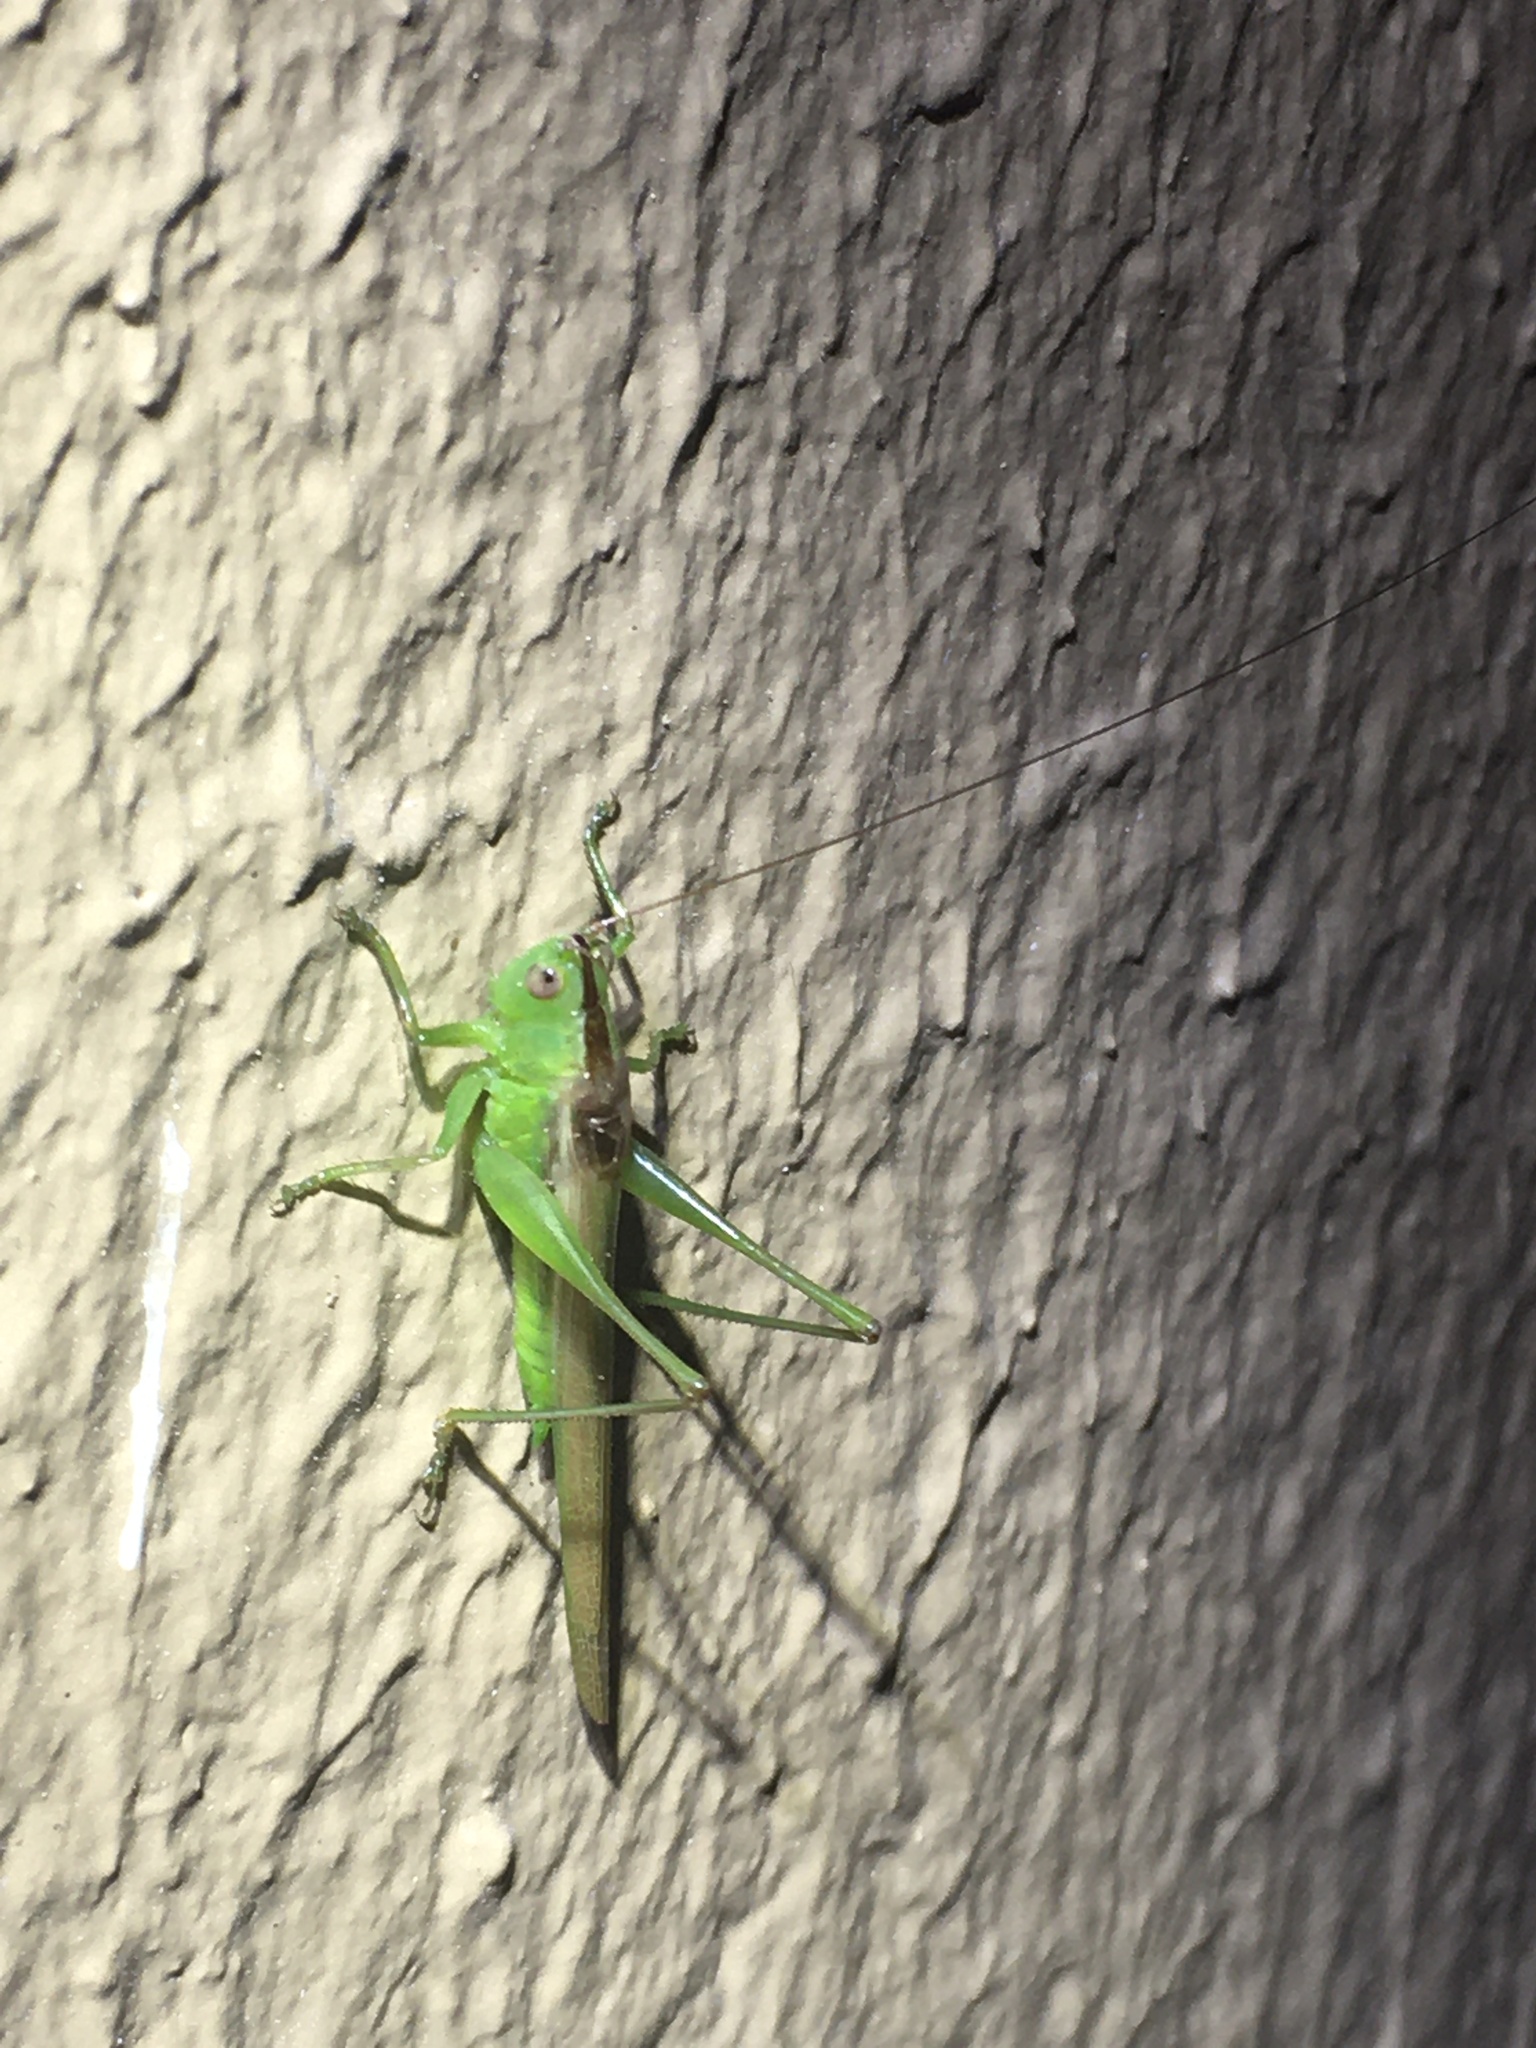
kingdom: Animalia
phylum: Arthropoda
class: Insecta
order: Orthoptera
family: Tettigoniidae
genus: Conocephalus
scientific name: Conocephalus fasciatus
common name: Slender meadow katydid
